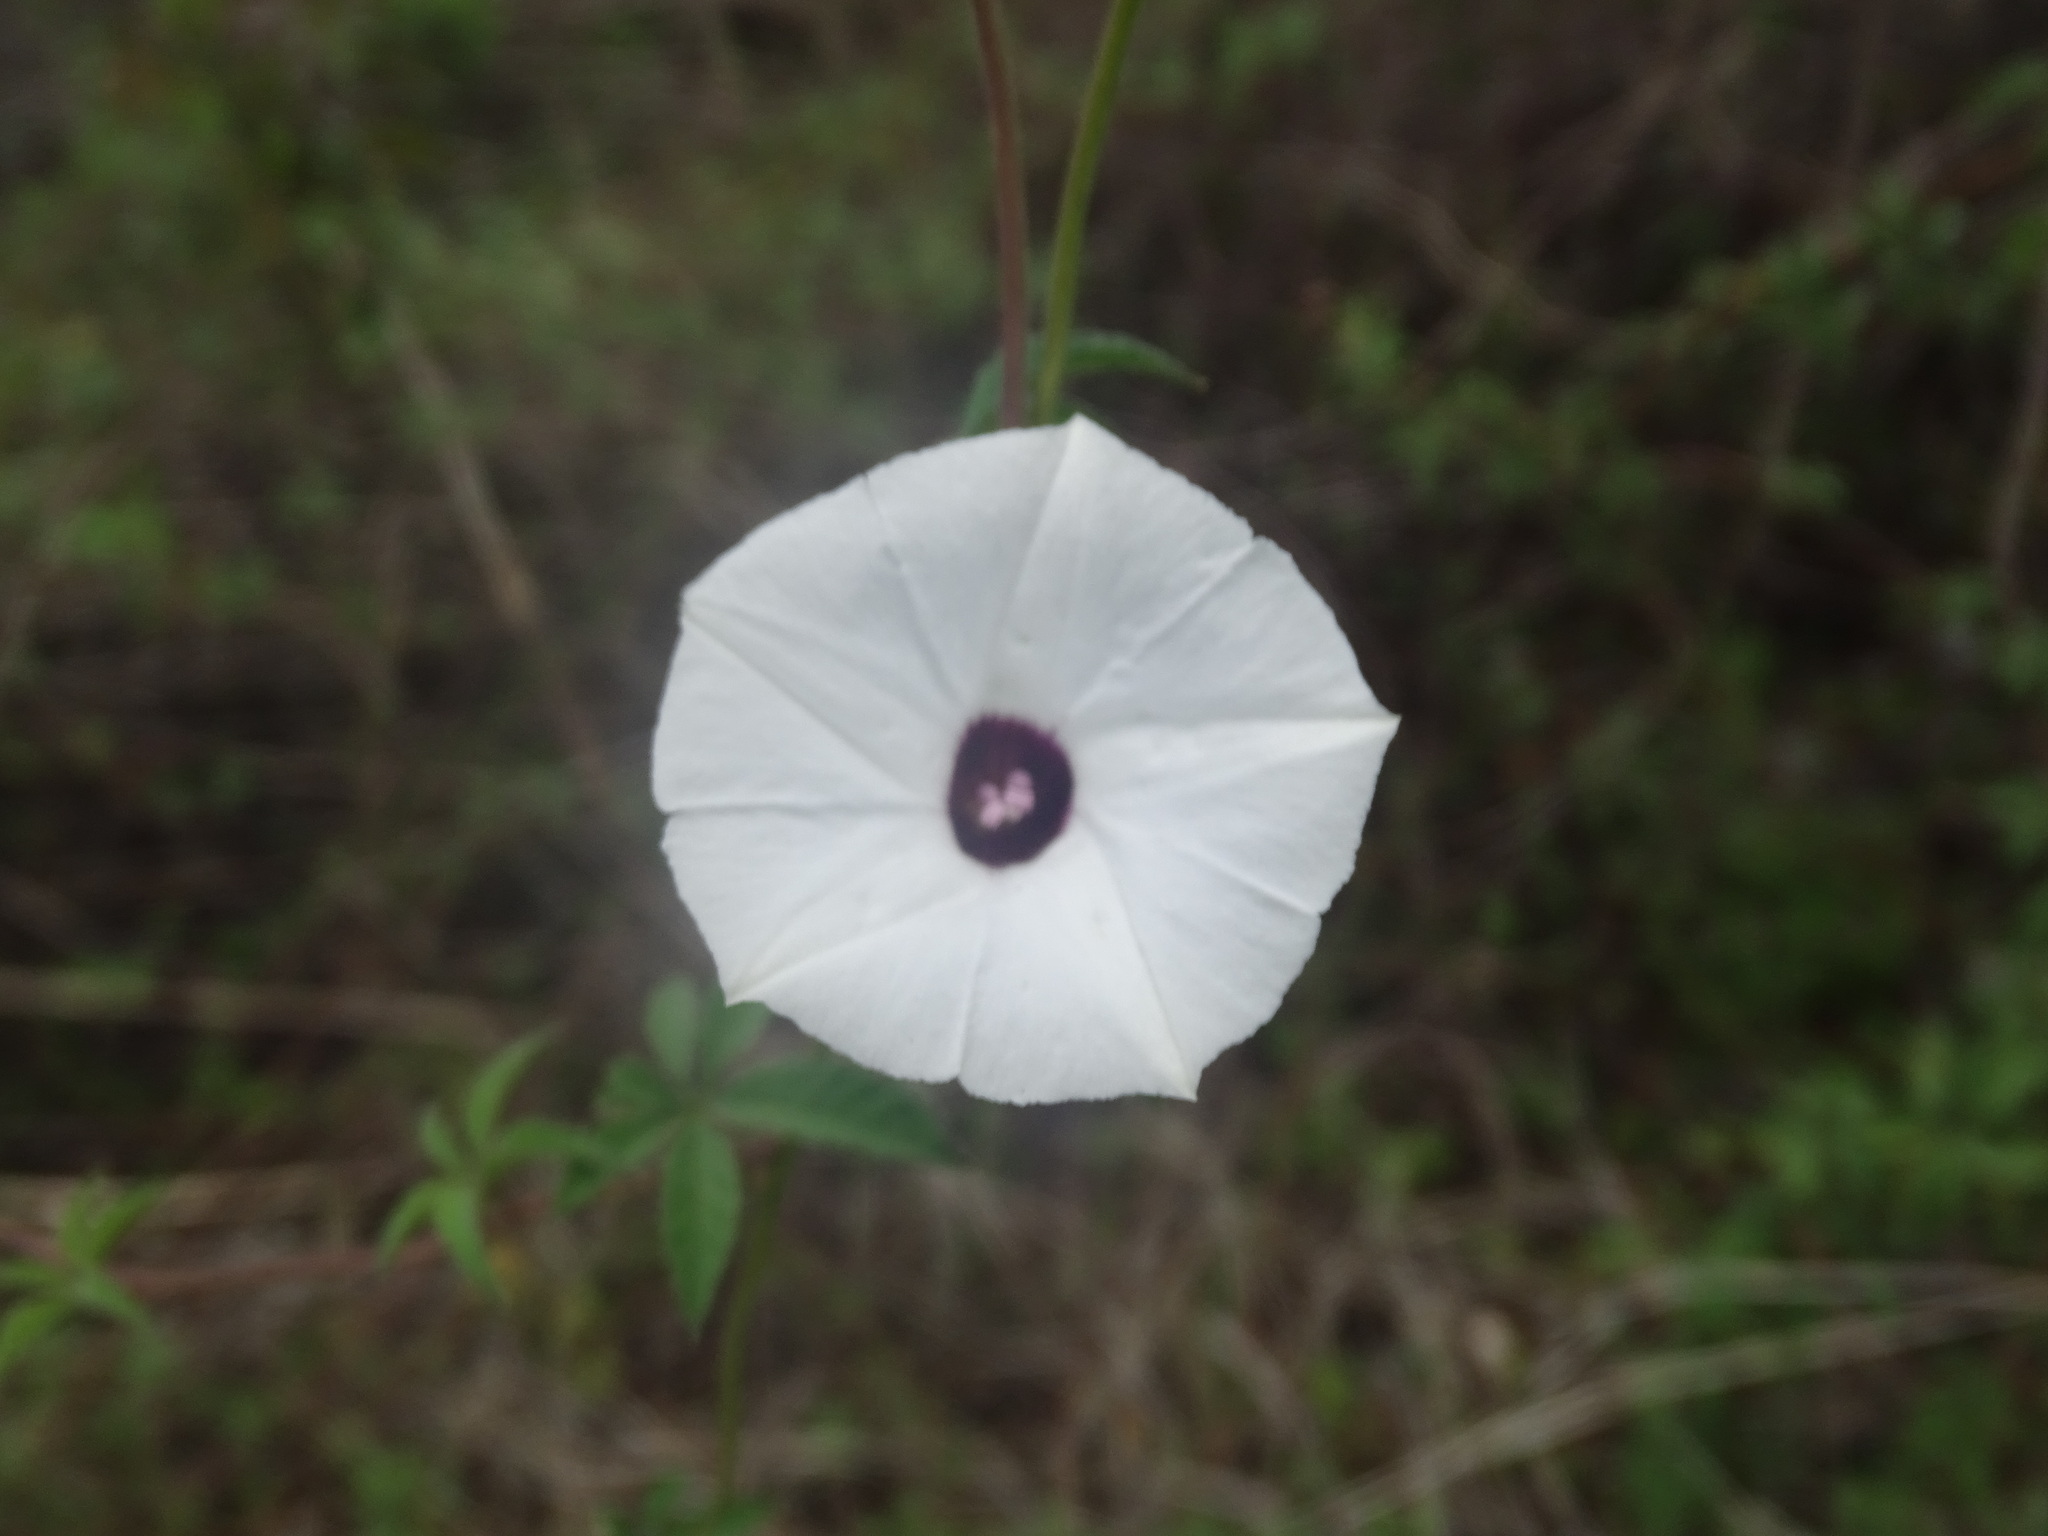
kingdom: Plantae
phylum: Tracheophyta
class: Magnoliopsida
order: Solanales
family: Convolvulaceae
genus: Distimake
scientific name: Distimake lobulibracteatus
